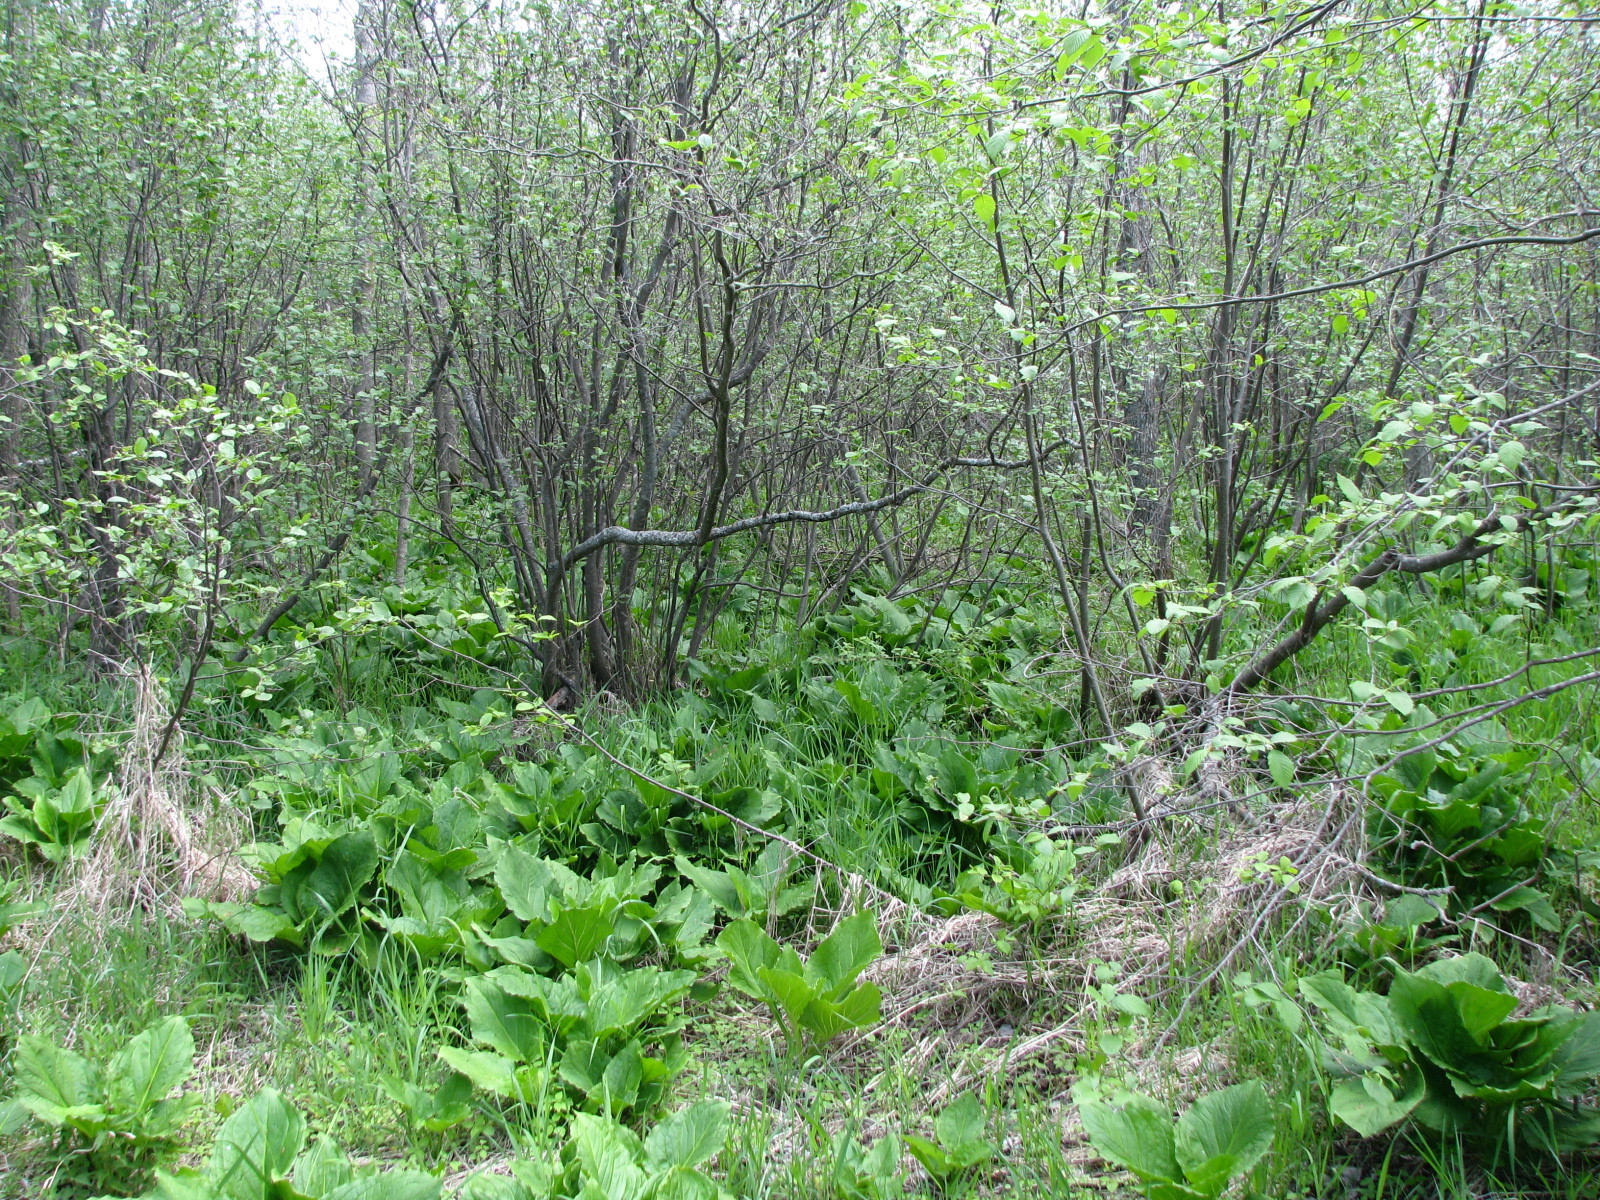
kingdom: Plantae
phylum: Tracheophyta
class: Liliopsida
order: Alismatales
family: Araceae
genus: Symplocarpus
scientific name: Symplocarpus foetidus
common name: Eastern skunk cabbage
